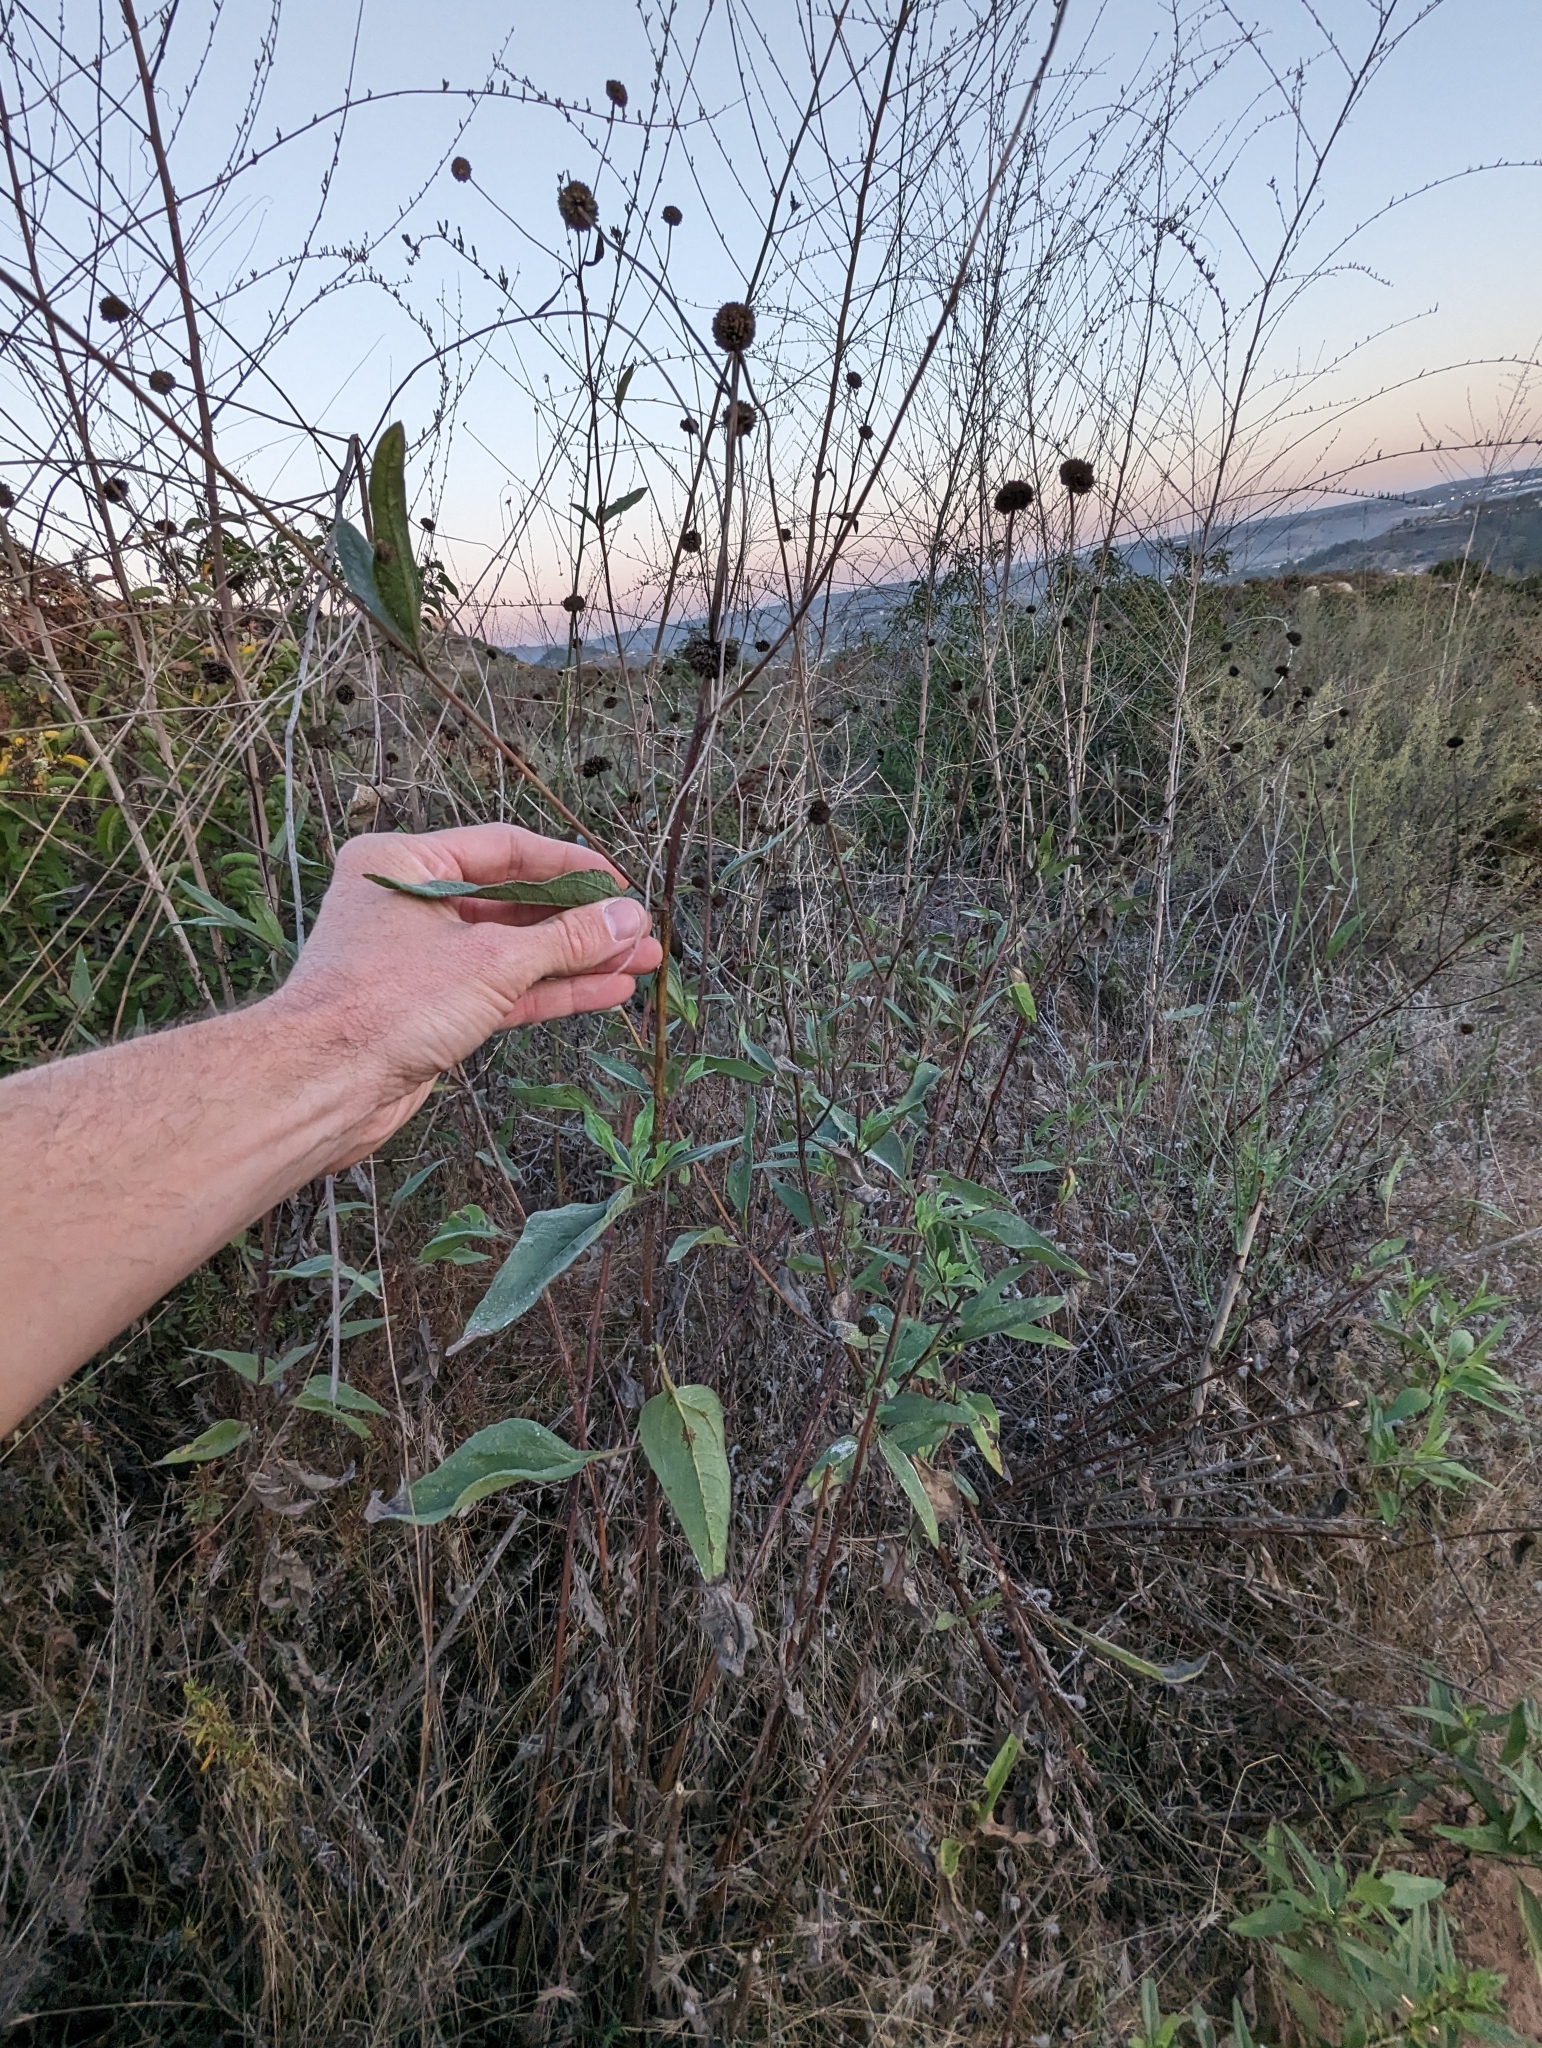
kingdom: Plantae
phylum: Tracheophyta
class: Magnoliopsida
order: Asterales
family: Asteraceae
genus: Helianthus
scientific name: Helianthus gracilentus
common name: Slender sunflower
